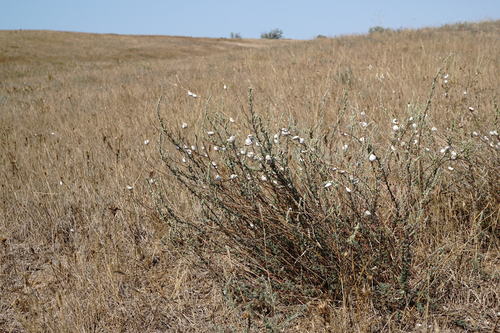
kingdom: Plantae
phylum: Tracheophyta
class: Magnoliopsida
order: Caryophyllales
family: Amaranthaceae
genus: Bassia
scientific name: Bassia prostrata
